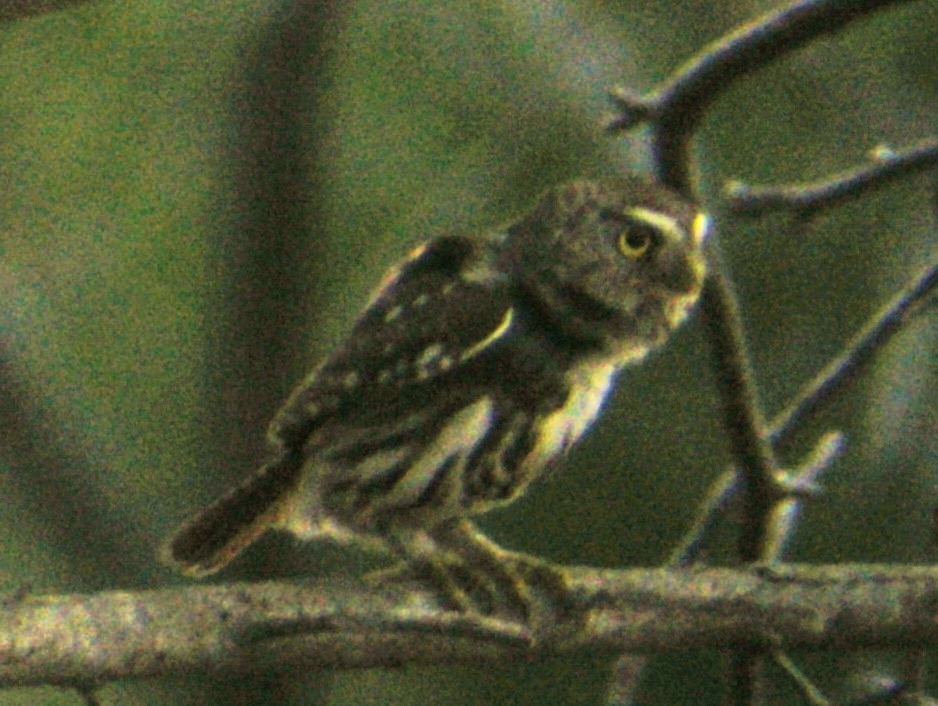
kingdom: Animalia
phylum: Chordata
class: Aves
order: Strigiformes
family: Strigidae
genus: Glaucidium
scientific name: Glaucidium brasilianum
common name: Ferruginous pygmy-owl
